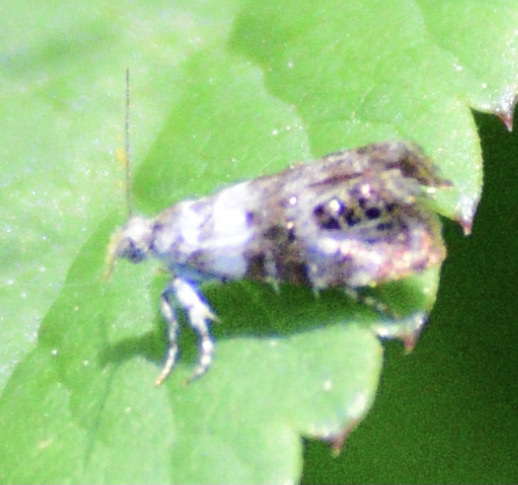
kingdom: Animalia
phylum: Arthropoda
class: Insecta
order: Lepidoptera
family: Choreutidae
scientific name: Choreutidae
